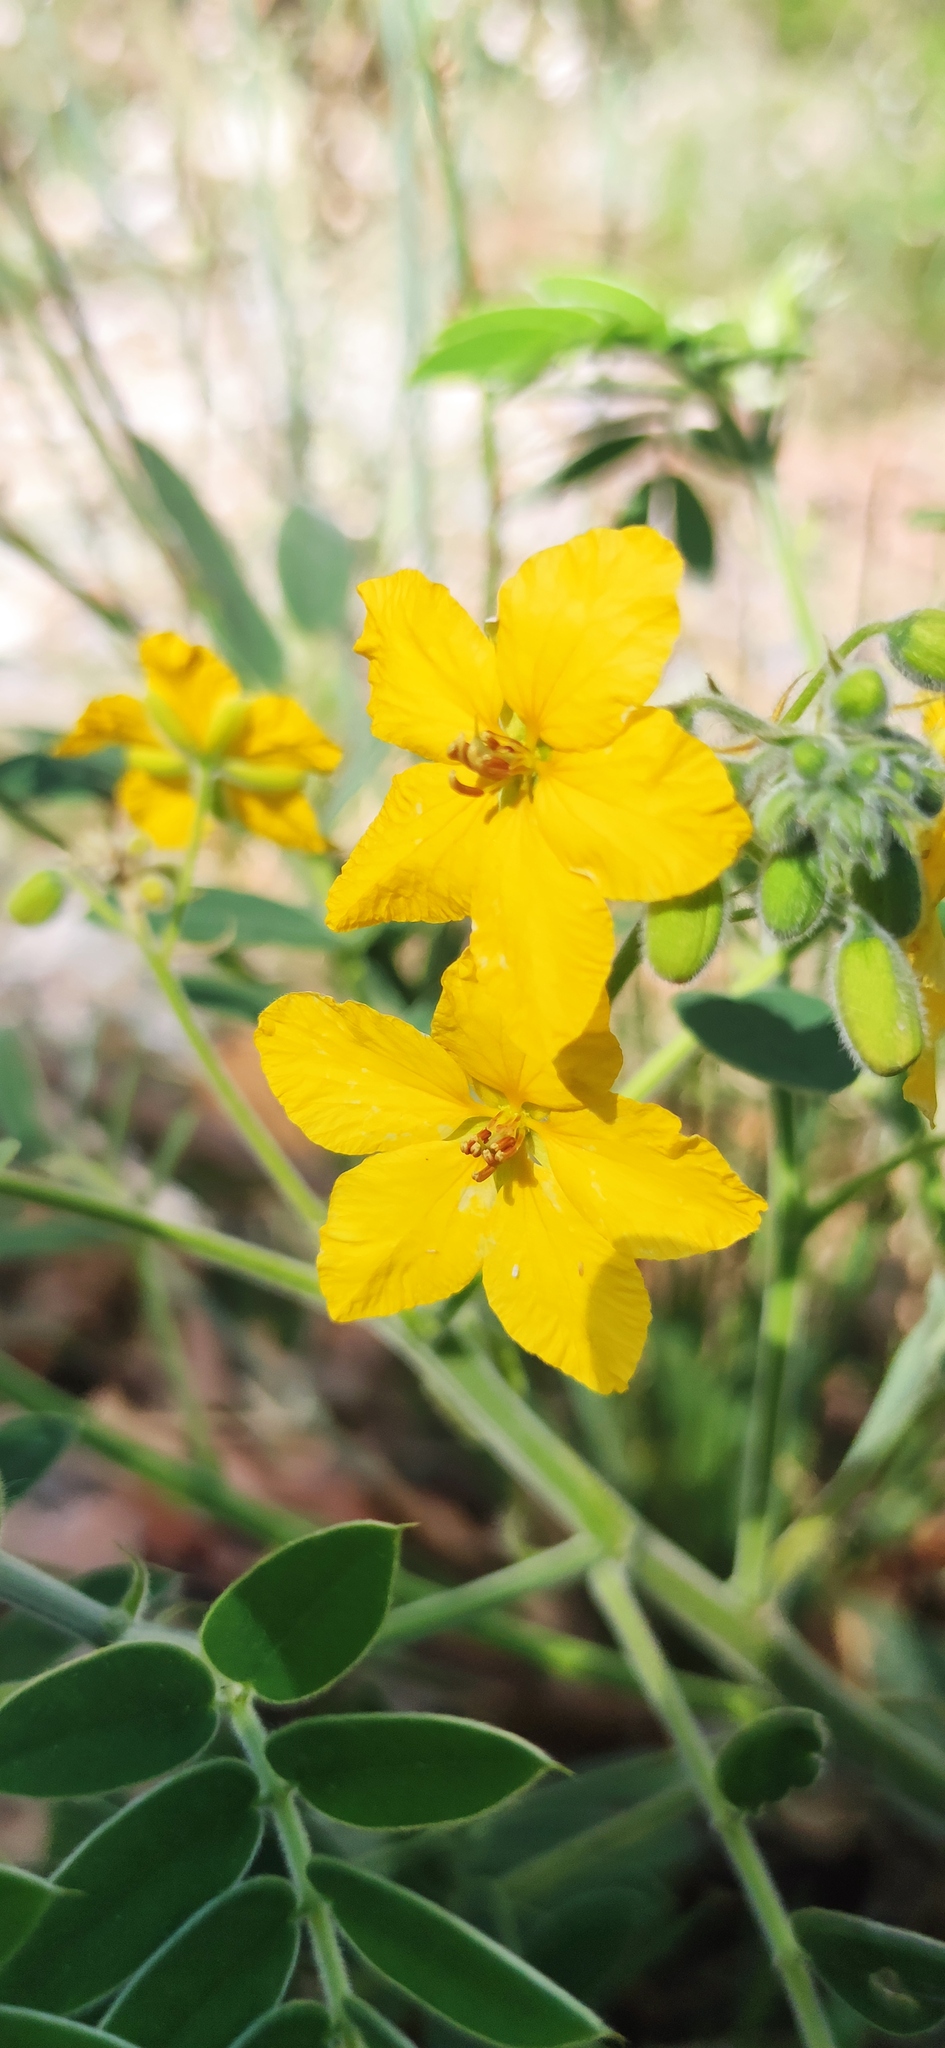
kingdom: Plantae
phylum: Tracheophyta
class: Magnoliopsida
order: Fabales
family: Fabaceae
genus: Senna
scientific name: Senna lindheimeriana
